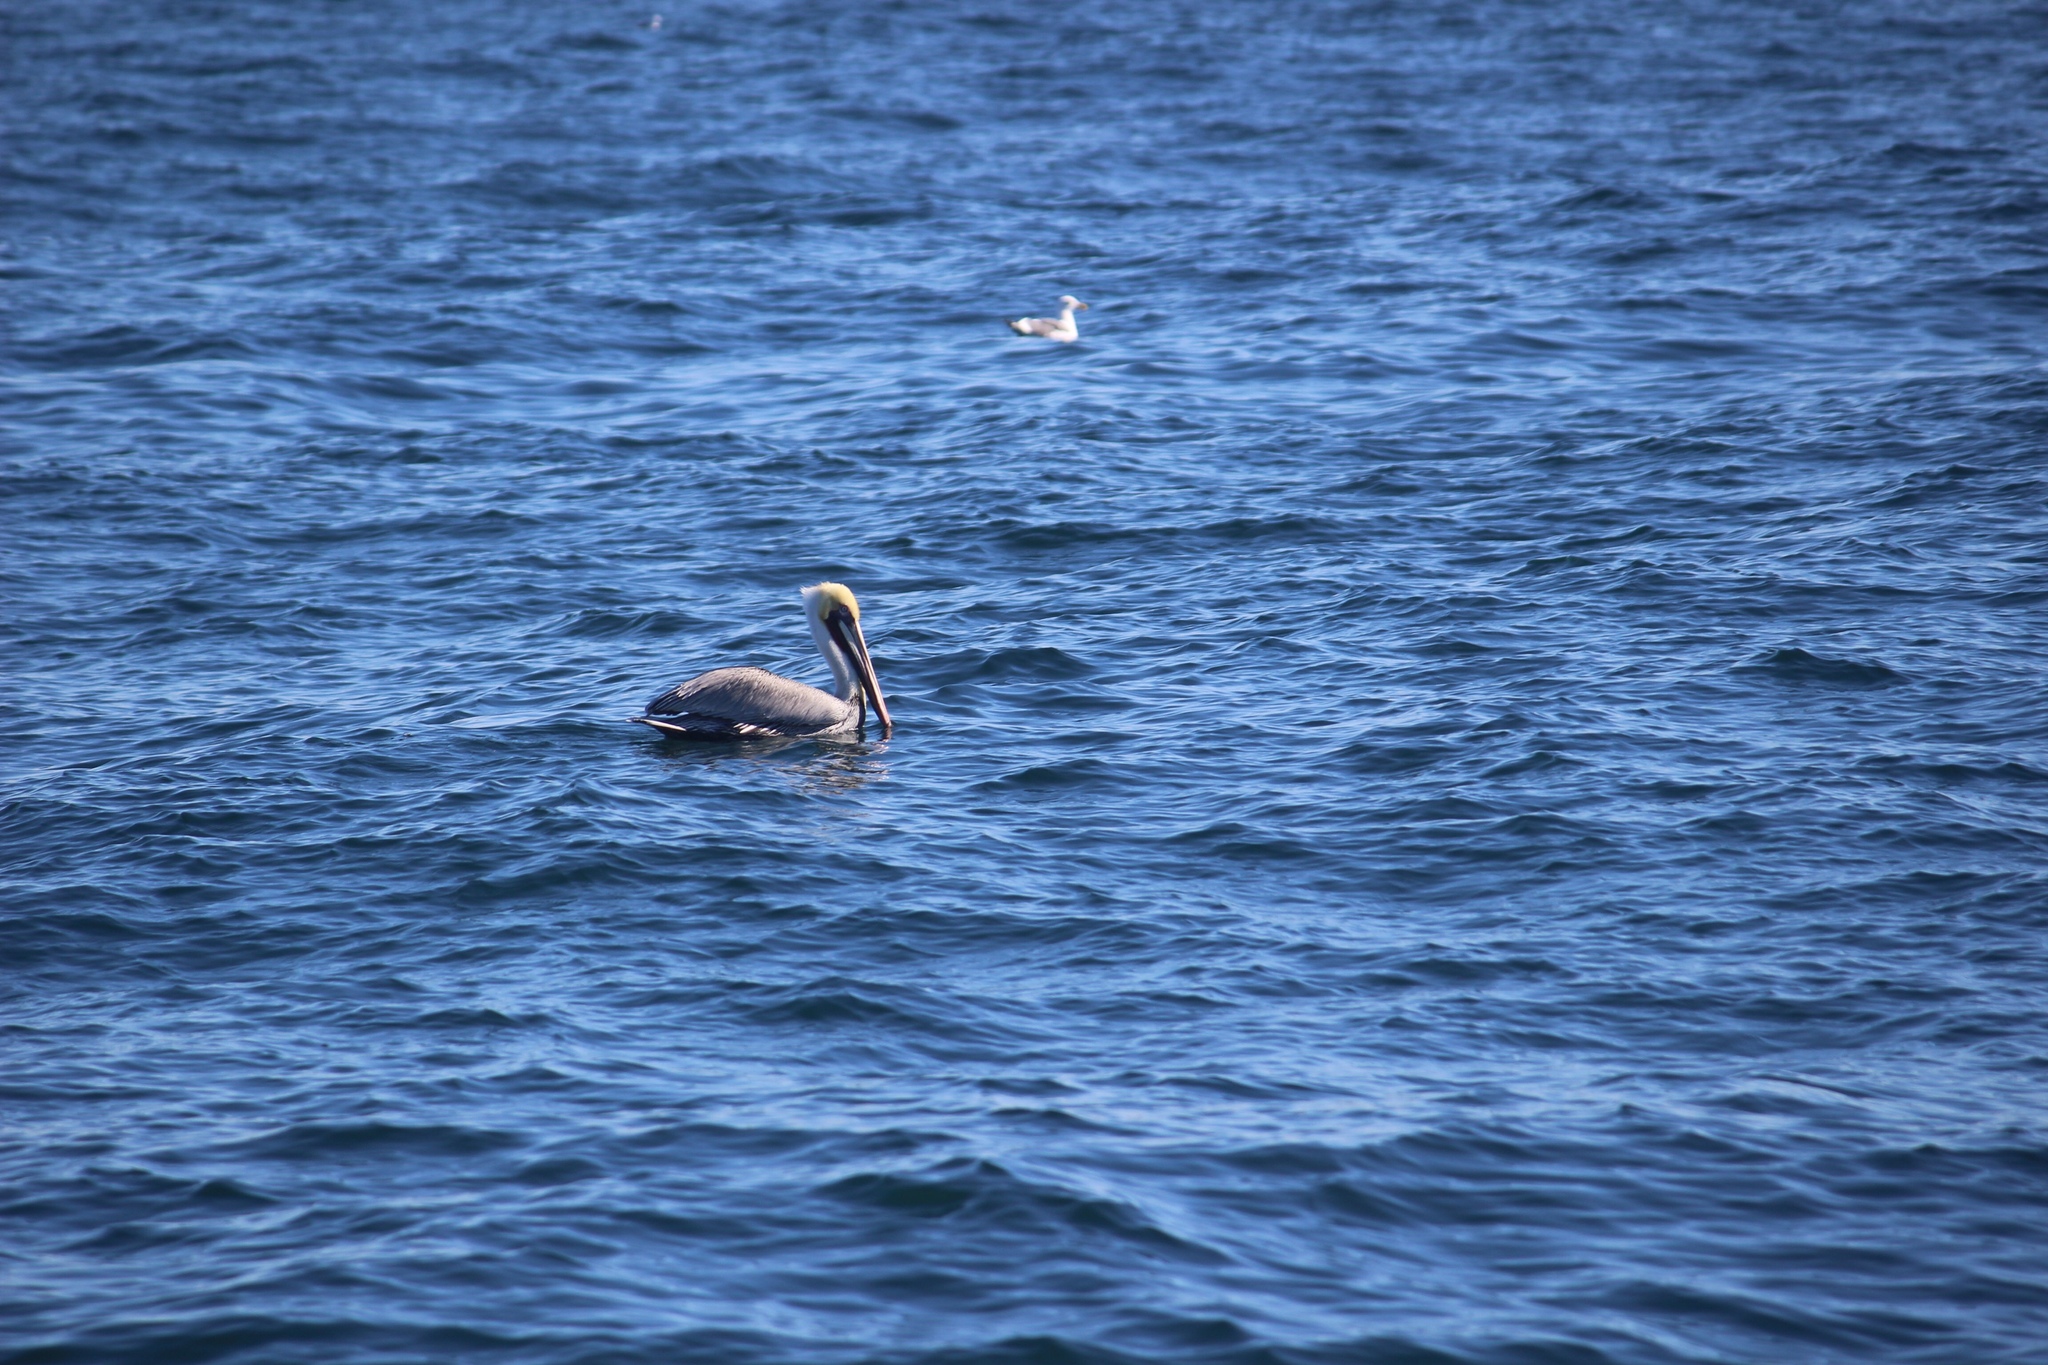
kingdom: Animalia
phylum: Chordata
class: Aves
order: Pelecaniformes
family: Pelecanidae
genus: Pelecanus
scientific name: Pelecanus occidentalis
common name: Brown pelican
